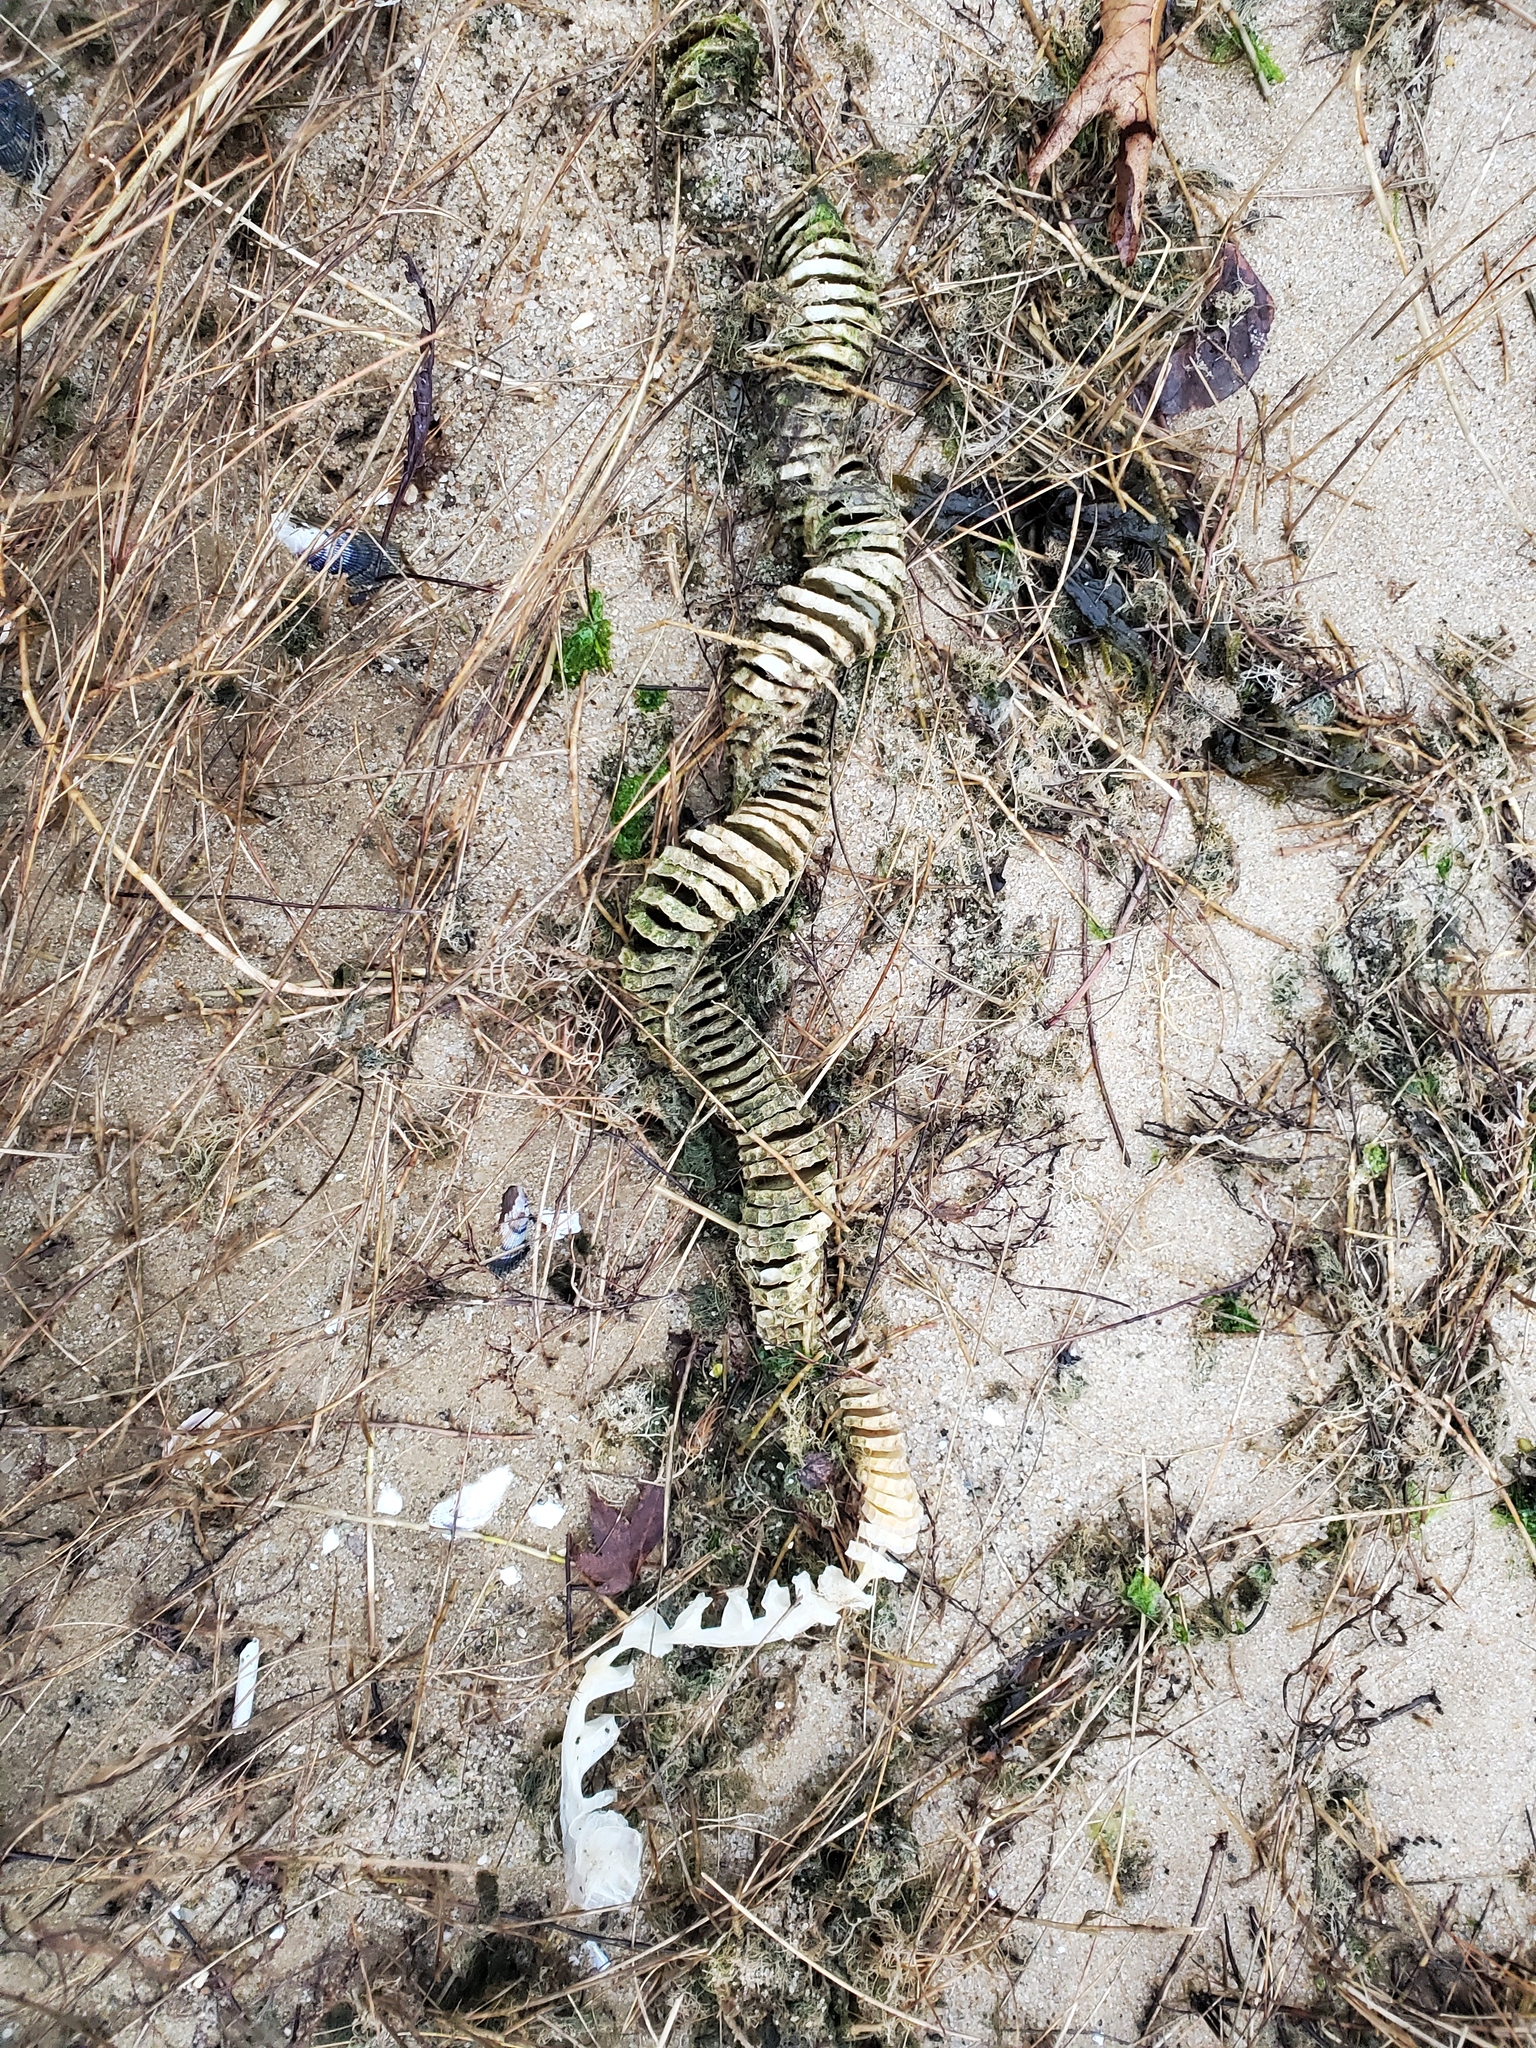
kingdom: Animalia
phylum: Mollusca
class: Gastropoda
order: Neogastropoda
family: Busyconidae
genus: Busycon
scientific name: Busycon carica
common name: Knobbed whelk
